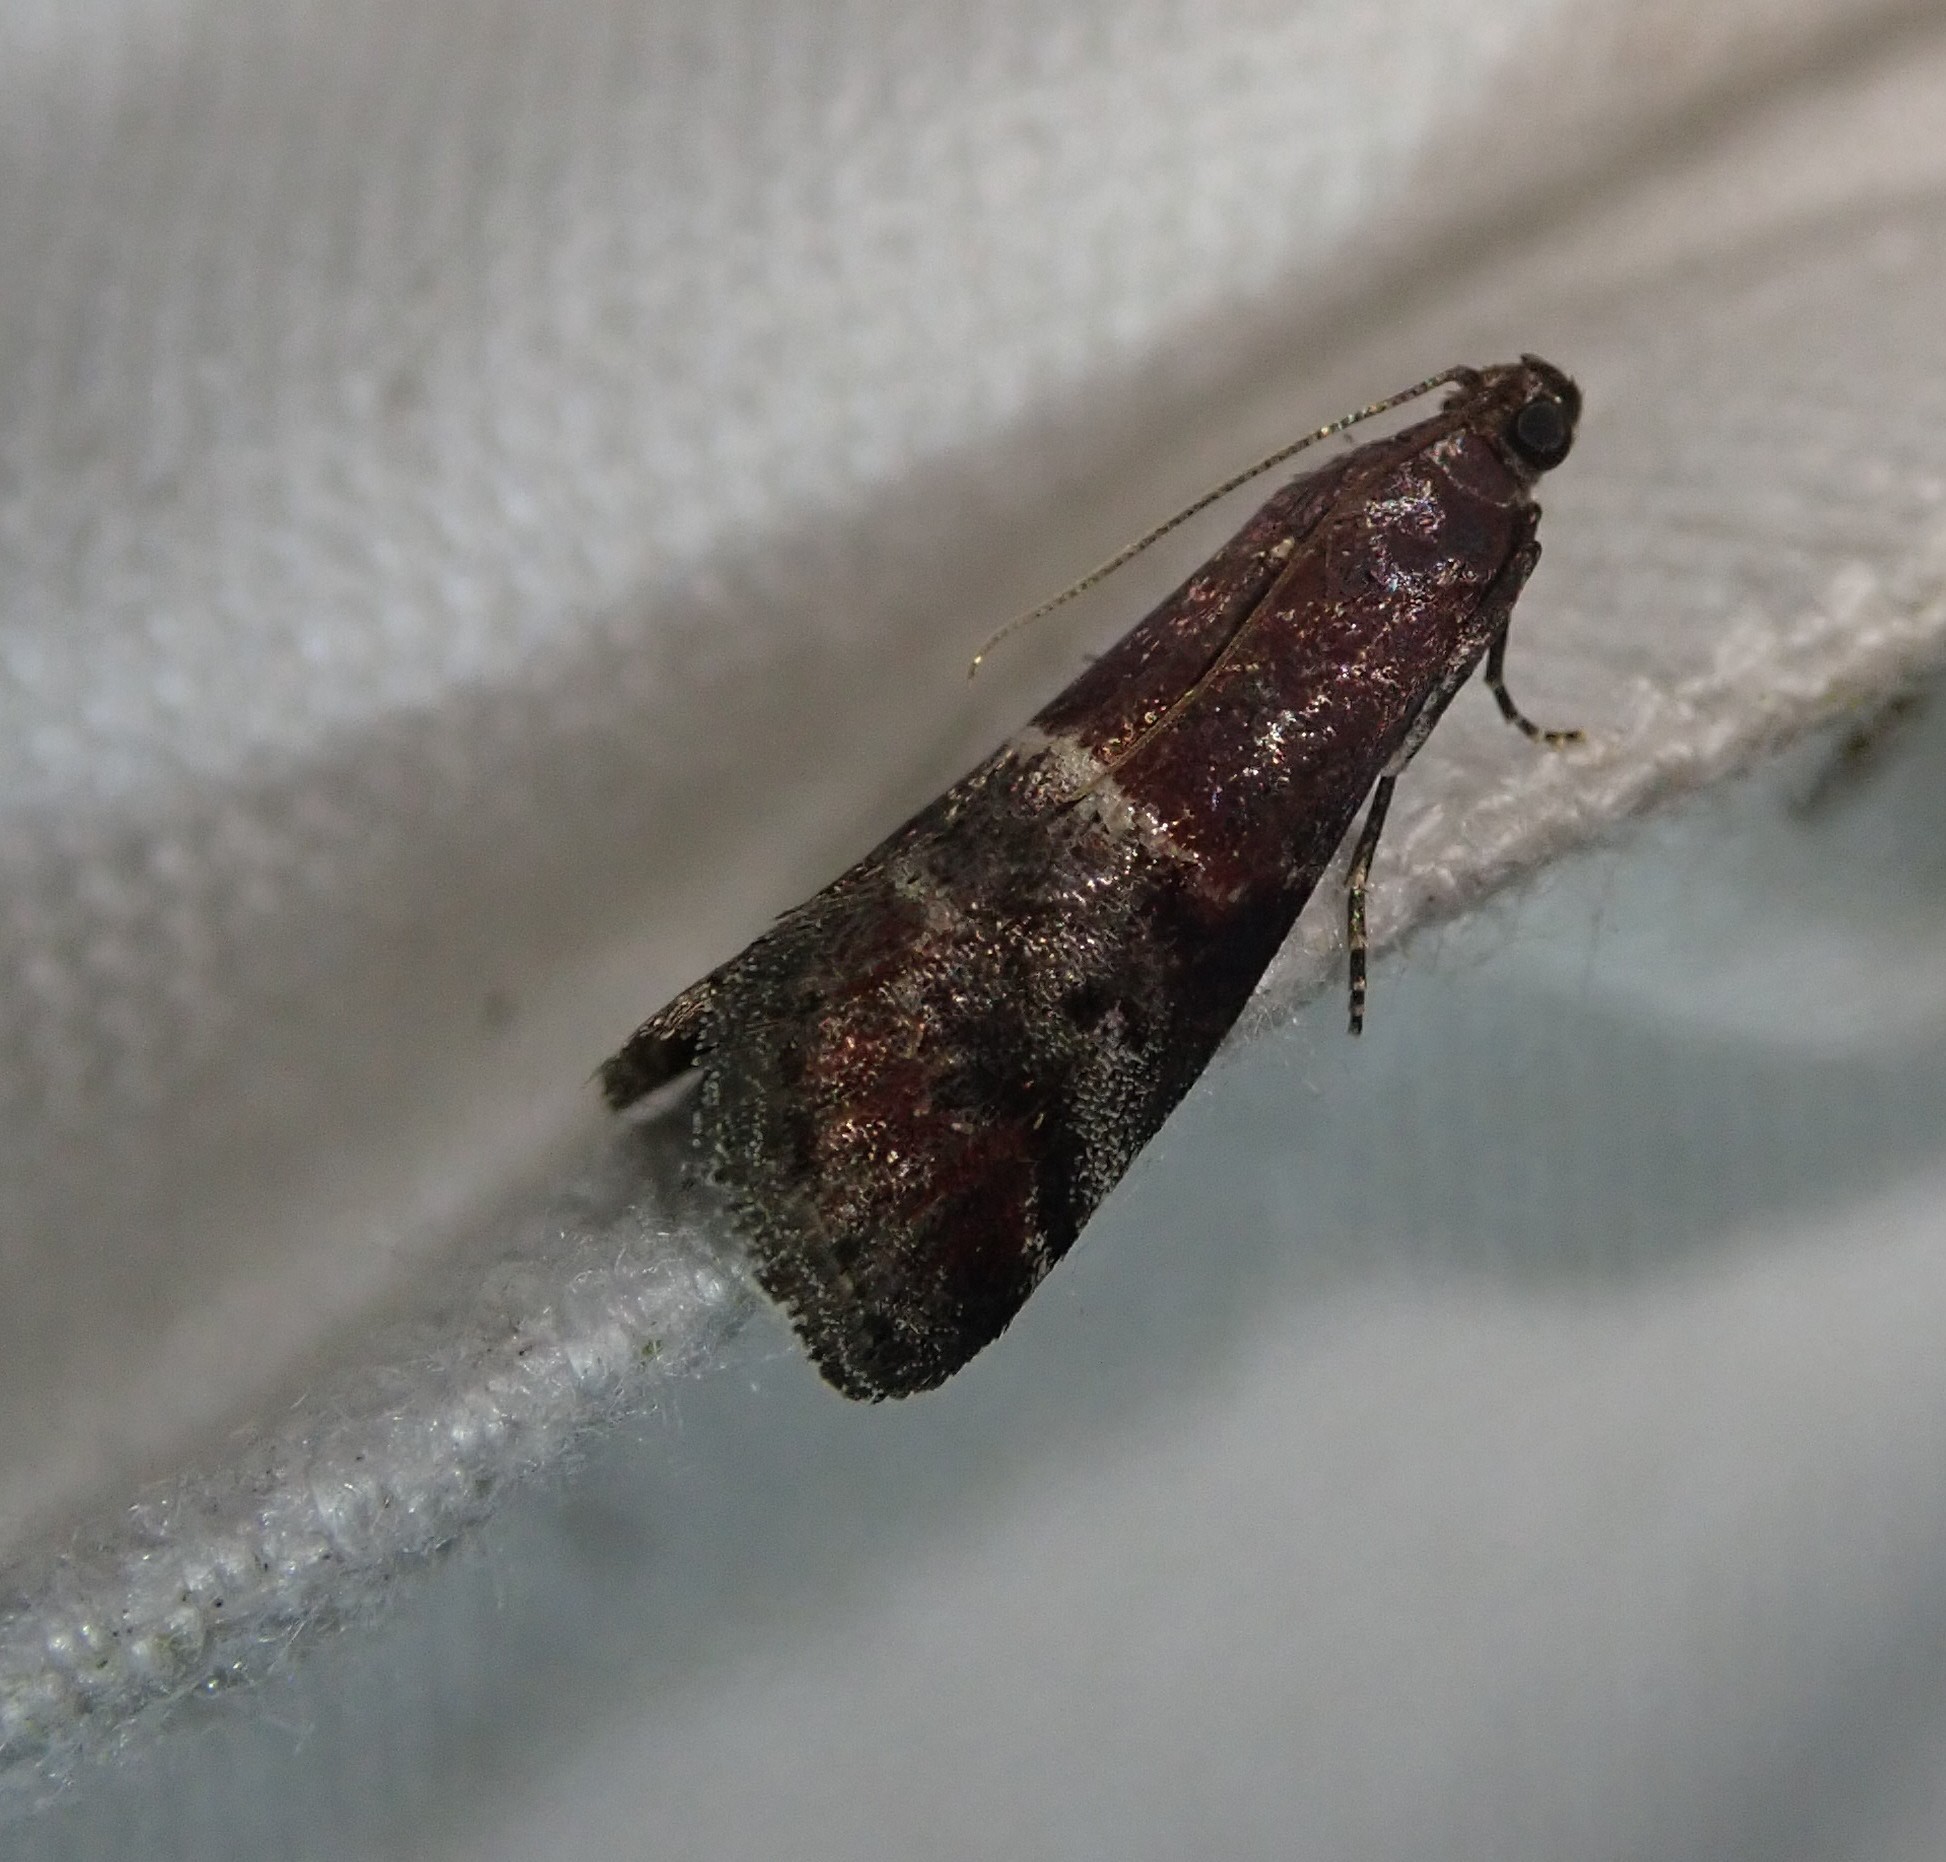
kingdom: Animalia
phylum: Arthropoda
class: Insecta
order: Lepidoptera
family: Pyralidae
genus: Acrobasis
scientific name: Acrobasis marmorea
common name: Marbled knot-horn
